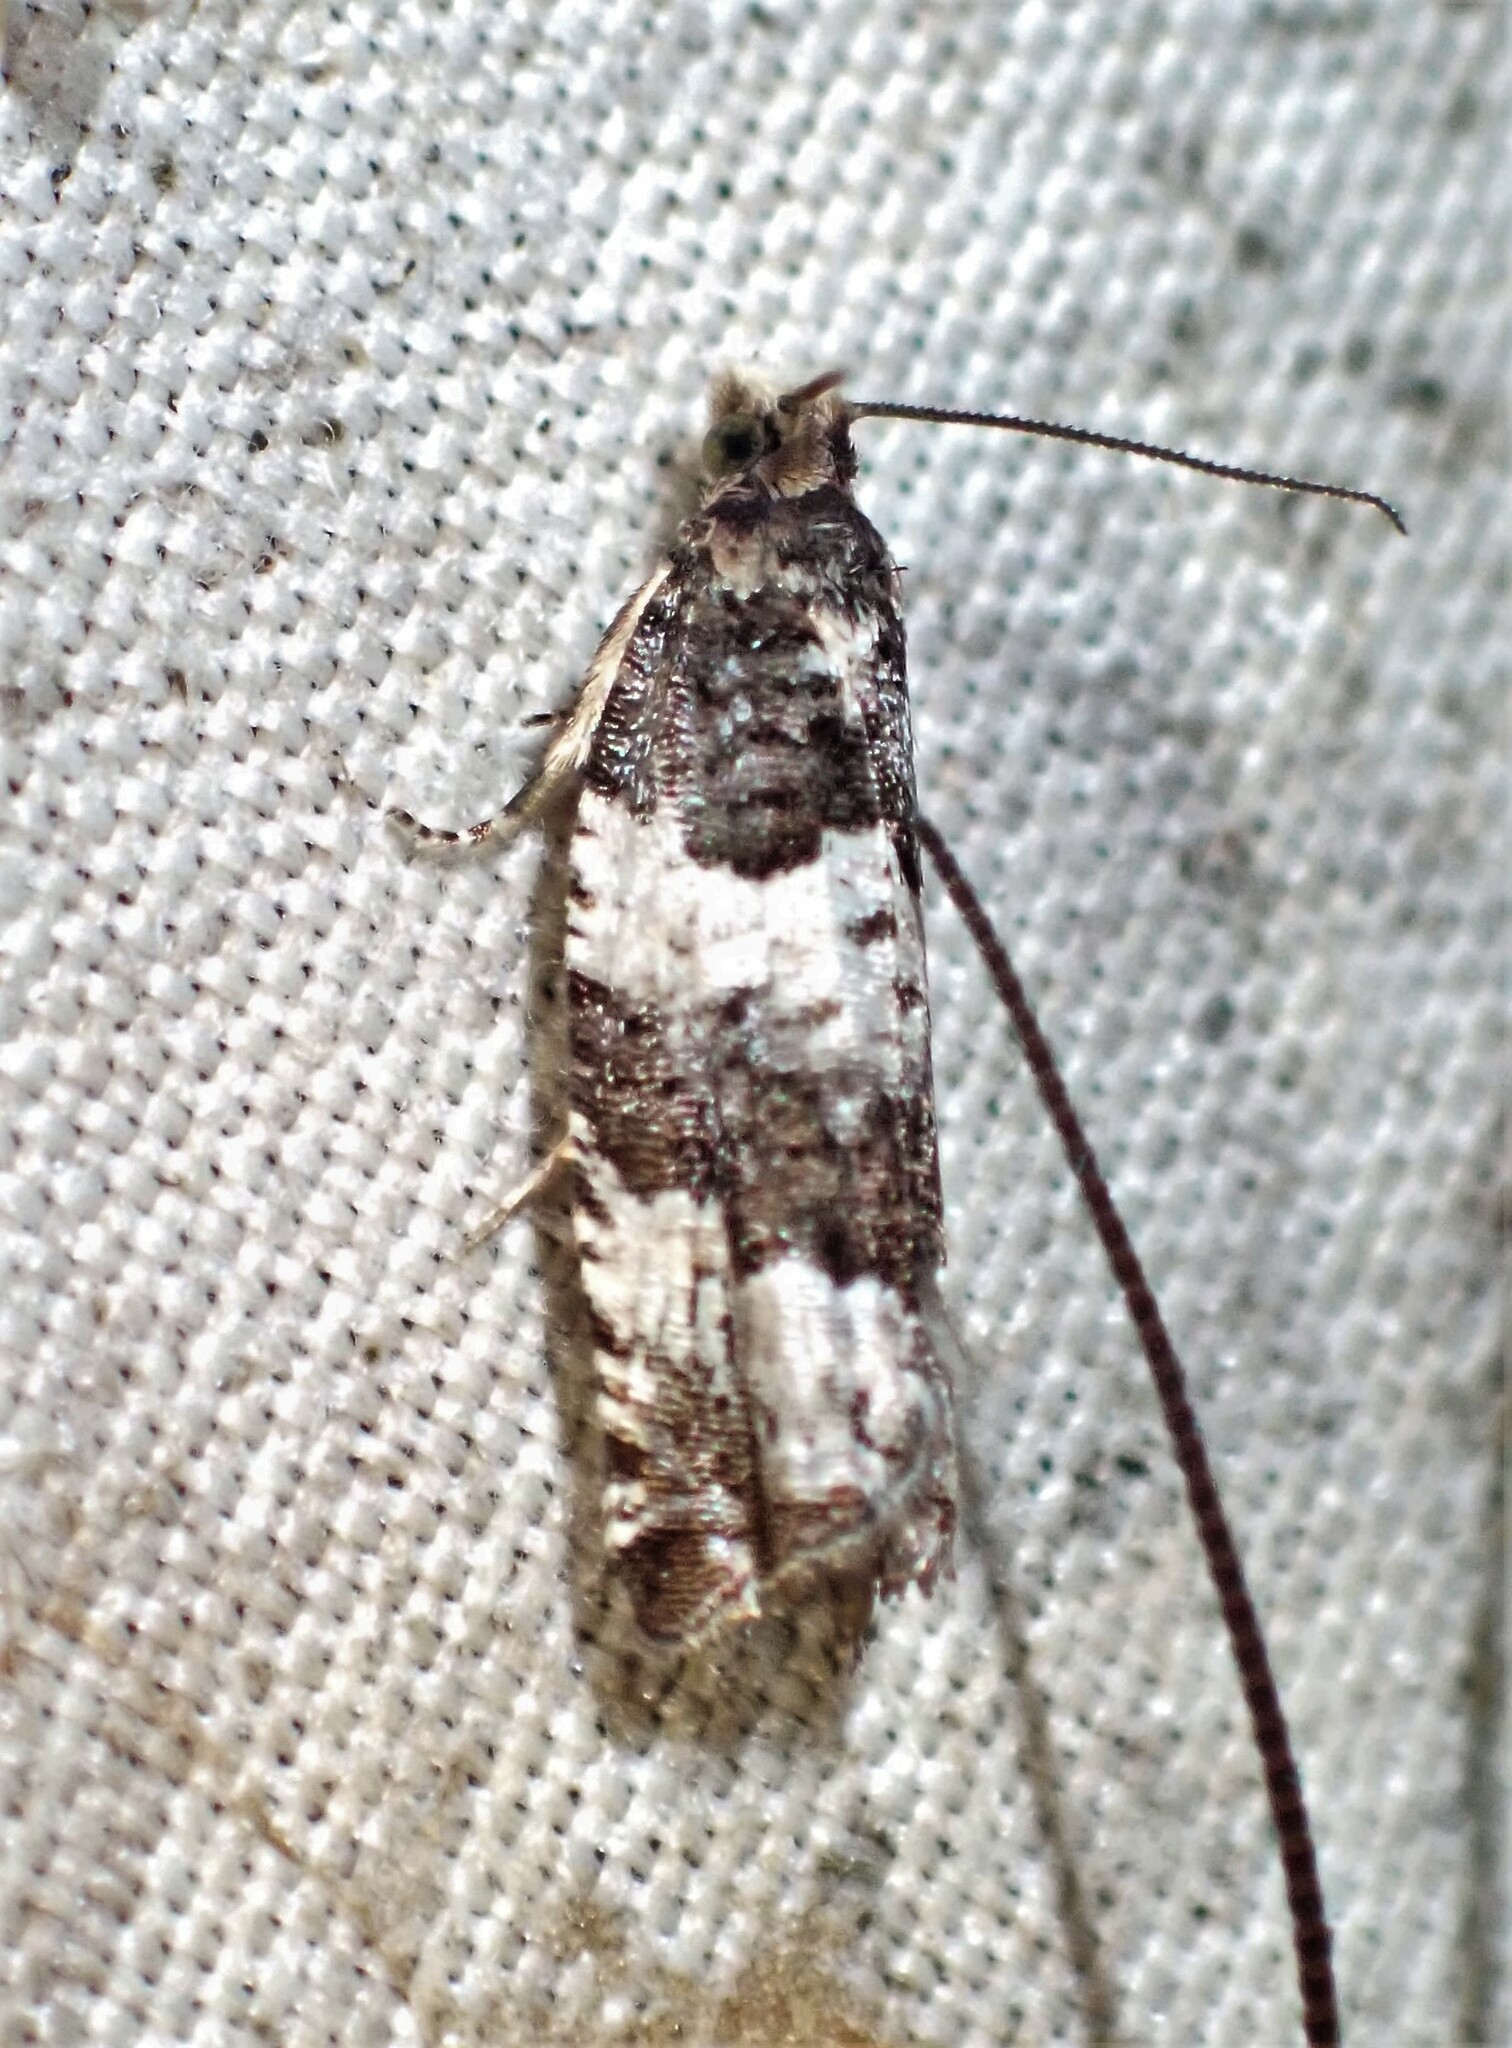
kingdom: Animalia
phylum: Arthropoda
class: Insecta
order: Lepidoptera
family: Tortricidae
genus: Gypsonoma
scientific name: Gypsonoma fasciolana
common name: Willow-and-poplar leafroller
